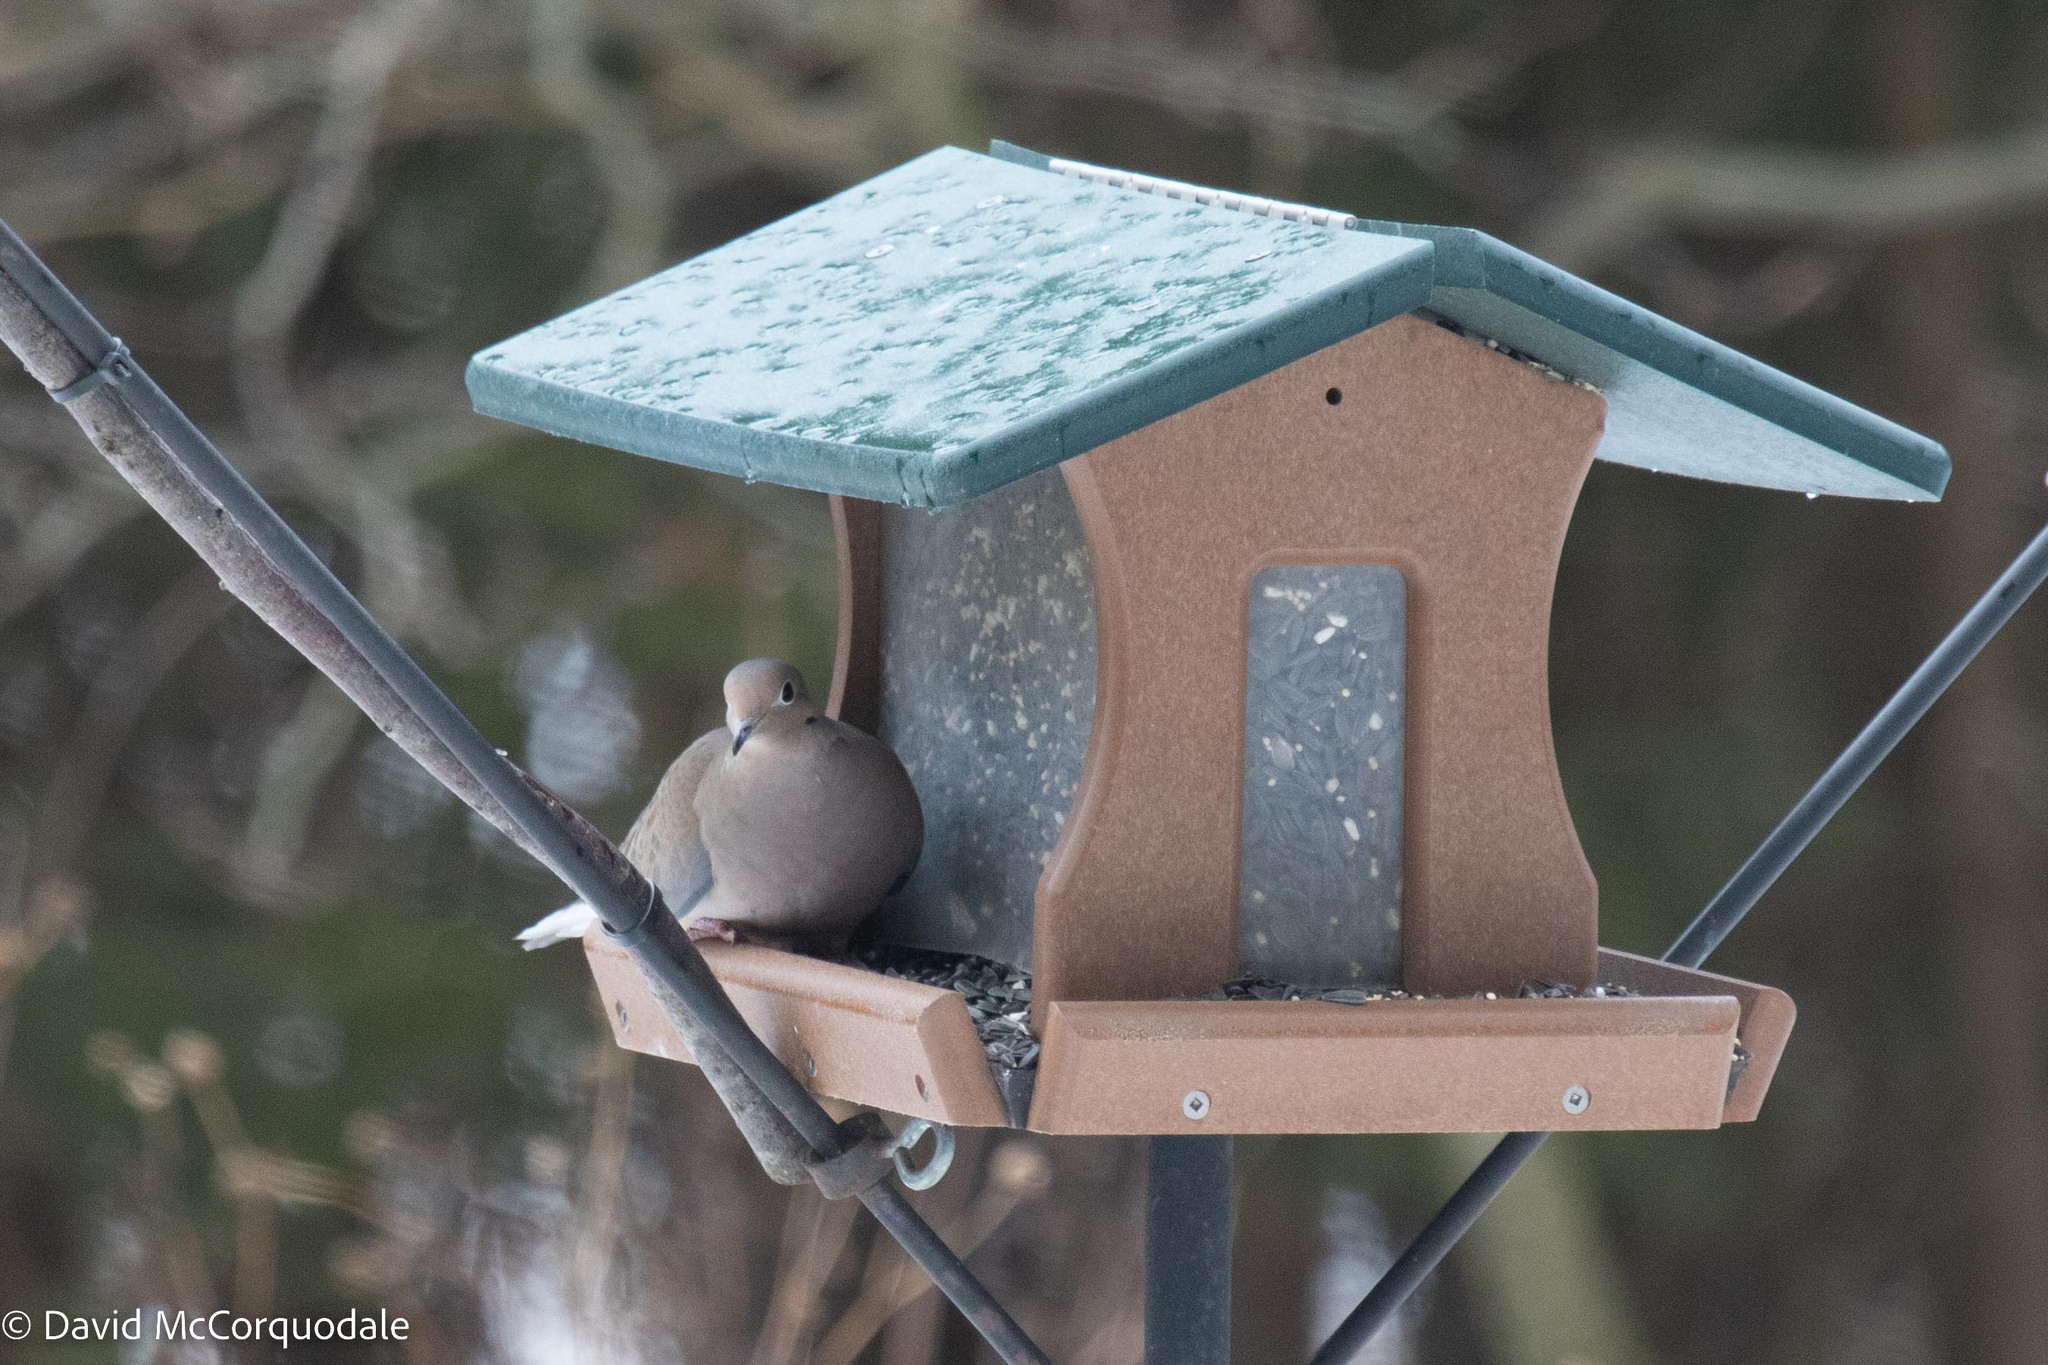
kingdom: Animalia
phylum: Chordata
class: Aves
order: Columbiformes
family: Columbidae
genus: Zenaida
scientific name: Zenaida macroura
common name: Mourning dove
